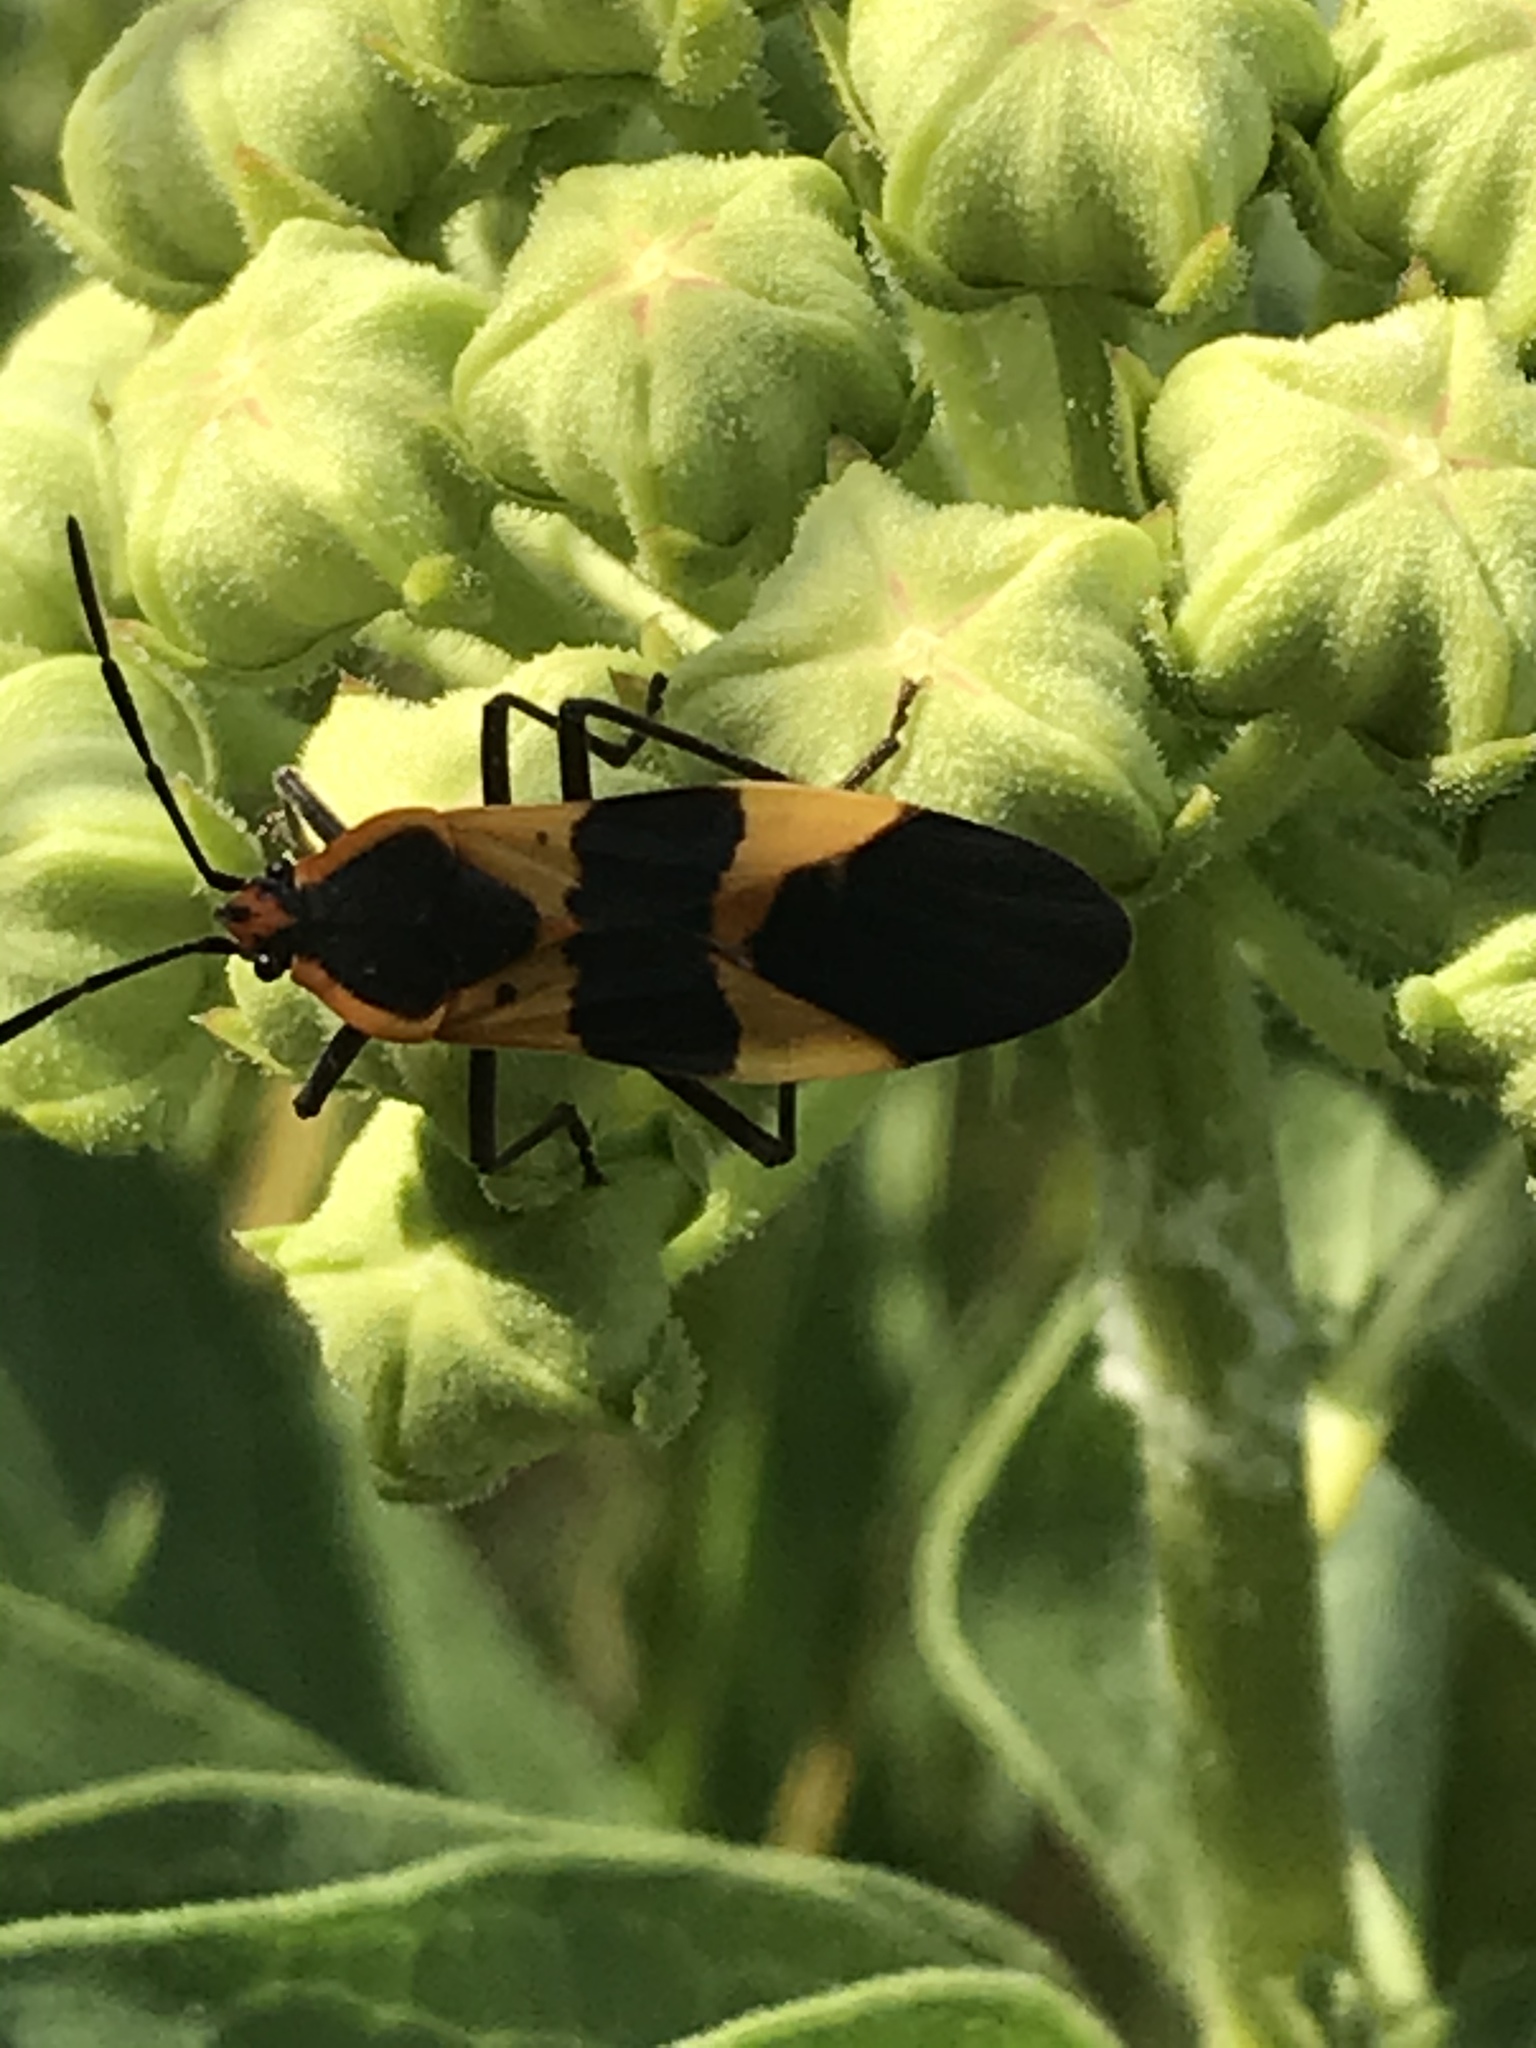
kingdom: Animalia
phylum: Arthropoda
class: Insecta
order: Hemiptera
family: Lygaeidae
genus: Oncopeltus
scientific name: Oncopeltus fasciatus
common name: Large milkweed bug
